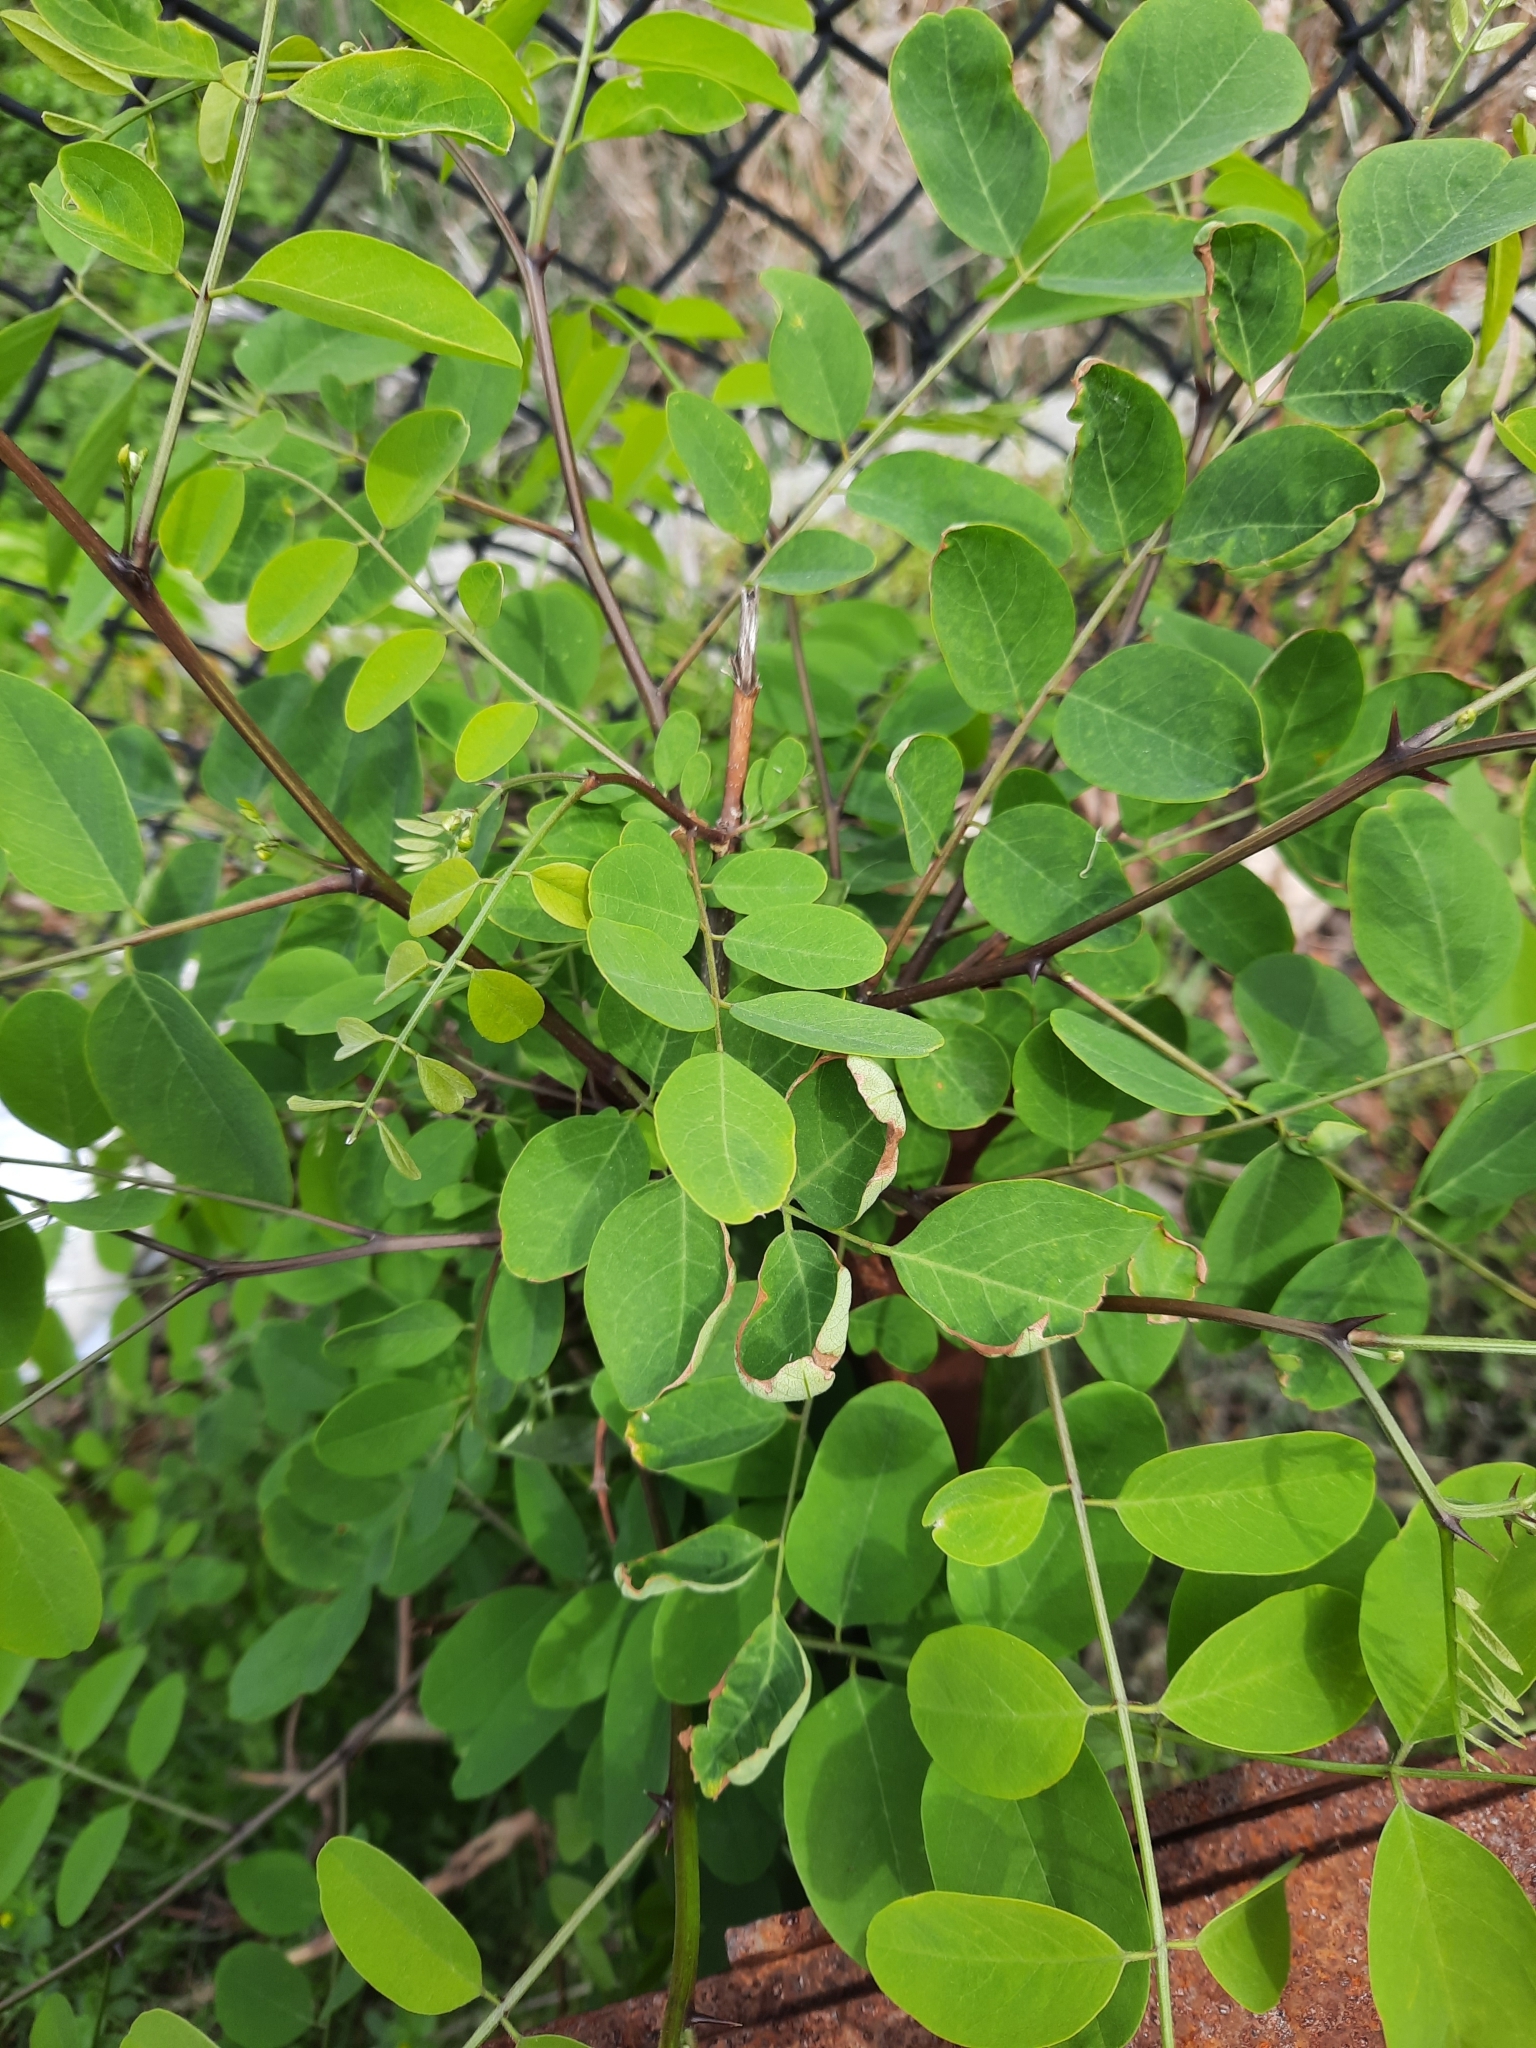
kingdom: Plantae
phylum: Tracheophyta
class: Magnoliopsida
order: Fabales
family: Fabaceae
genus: Robinia
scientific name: Robinia pseudoacacia
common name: Black locust
